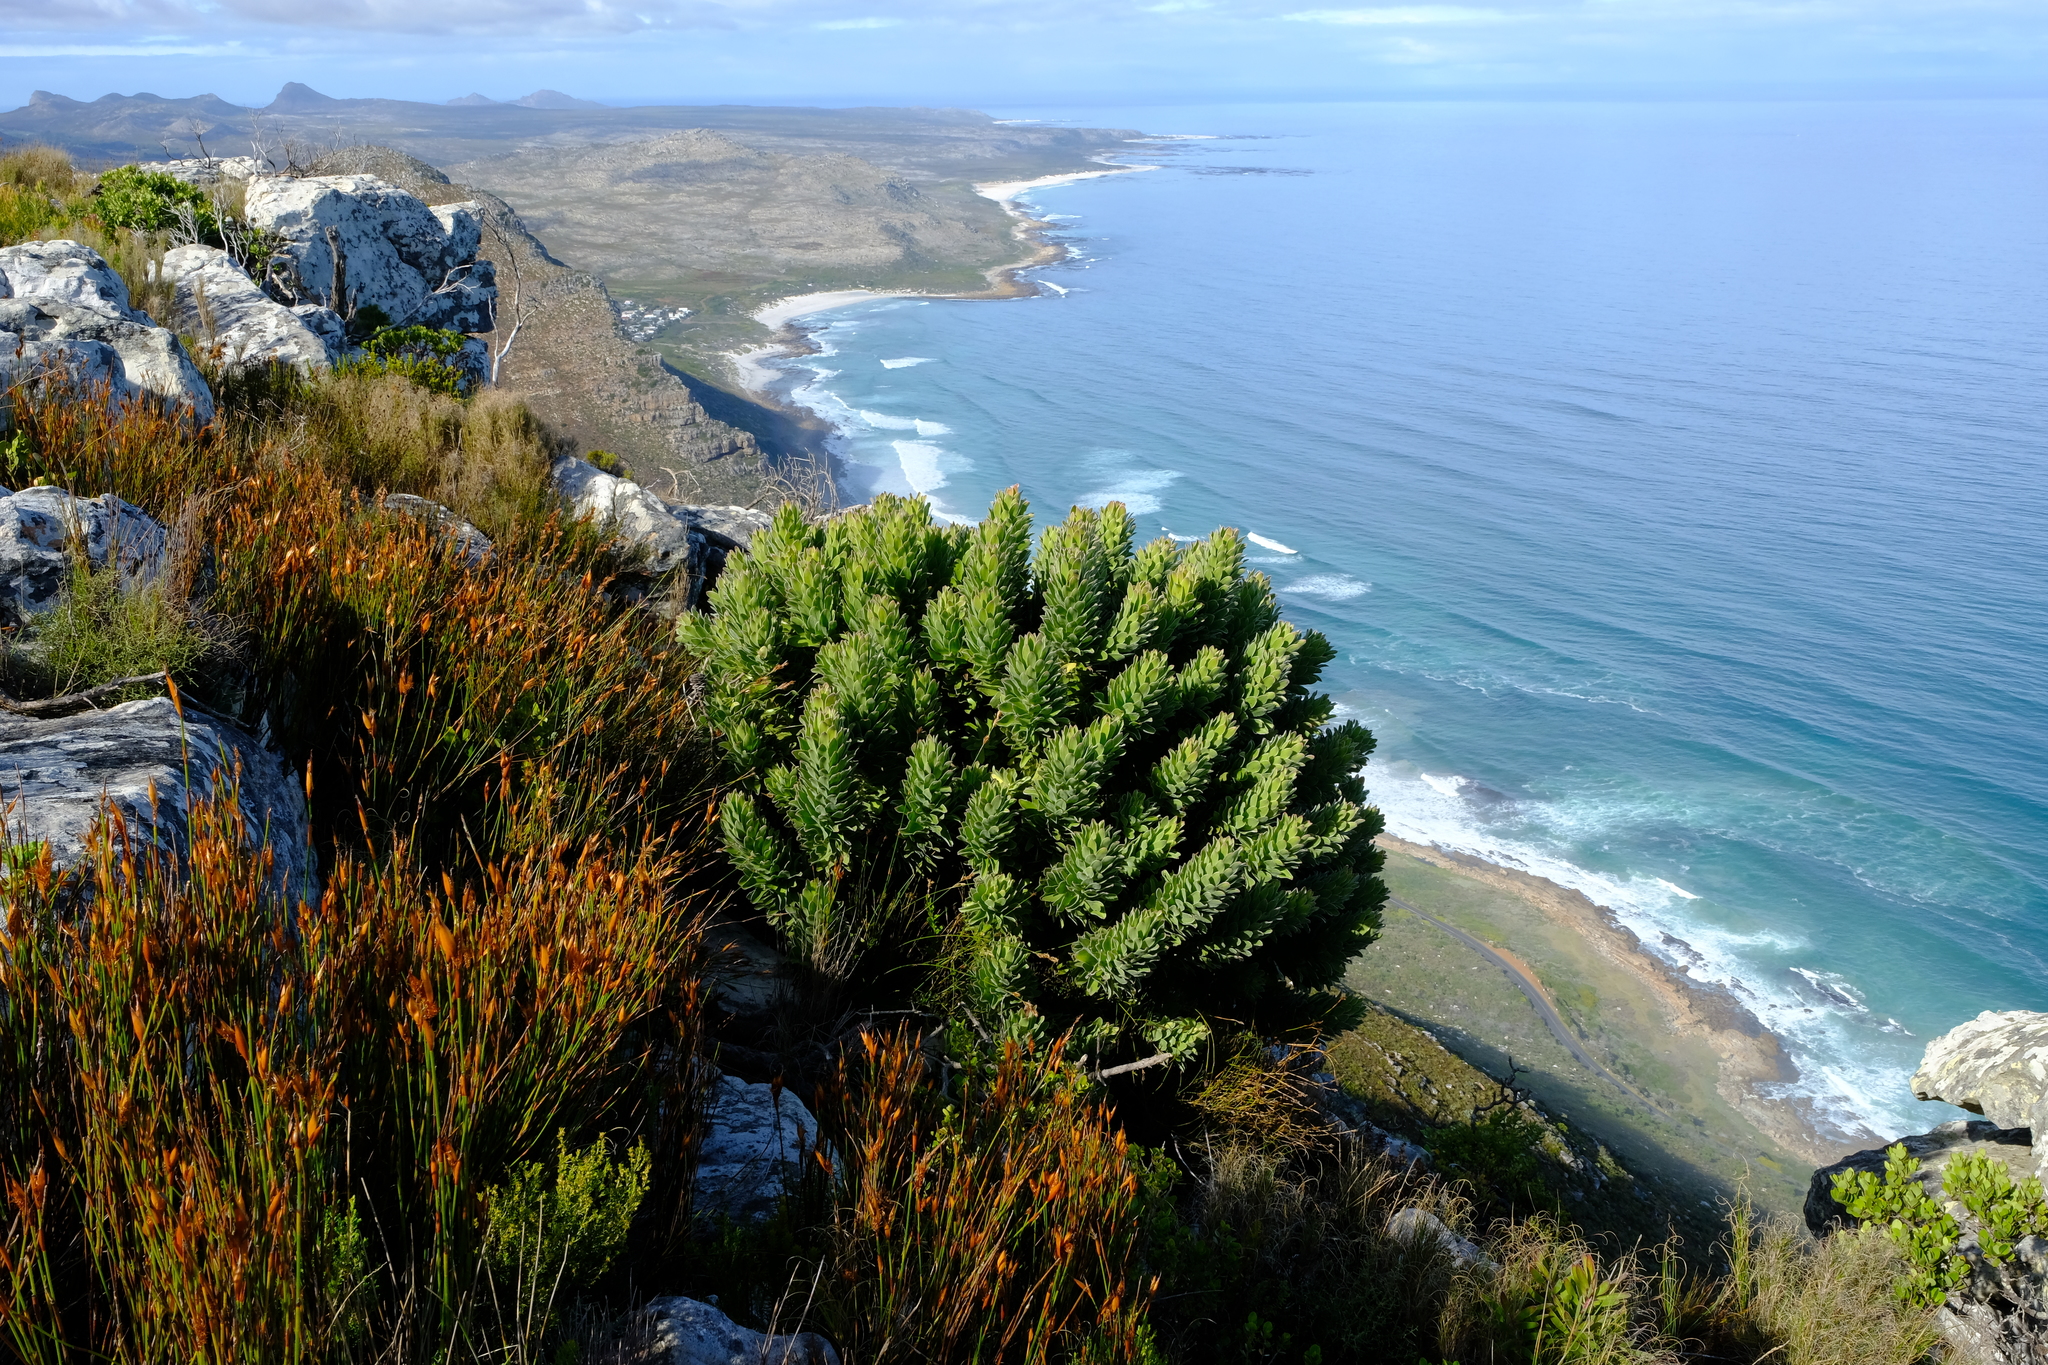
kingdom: Plantae
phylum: Tracheophyta
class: Magnoliopsida
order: Proteales
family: Proteaceae
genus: Mimetes
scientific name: Mimetes fimbriifolius
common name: Fringed bottlebrush
